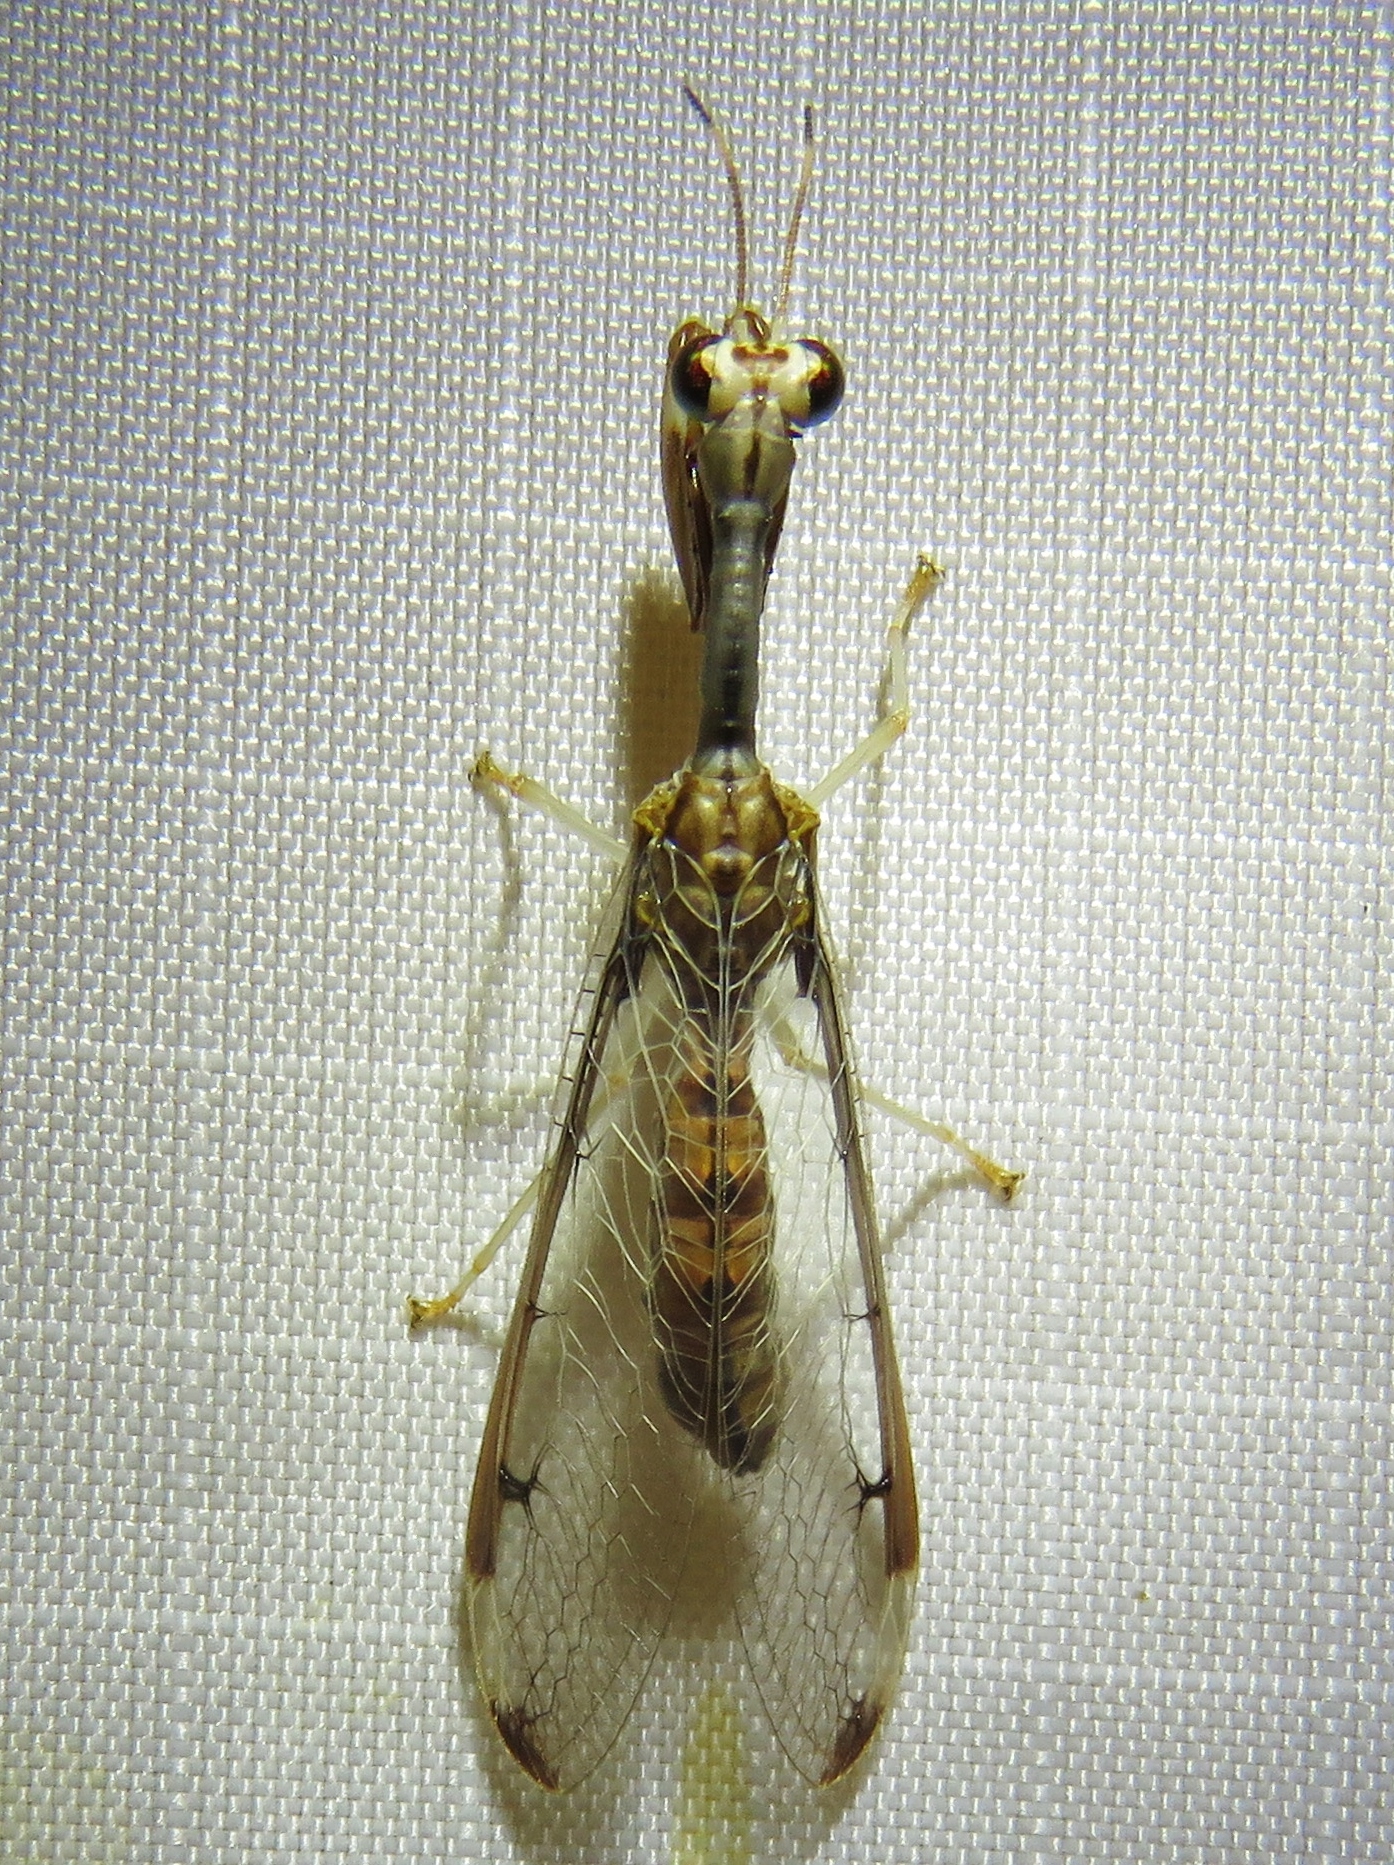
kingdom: Animalia
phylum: Arthropoda
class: Insecta
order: Neuroptera
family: Mantispidae
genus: Dicromantispa
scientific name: Dicromantispa interrupta
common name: Four-spotted mantidfly
